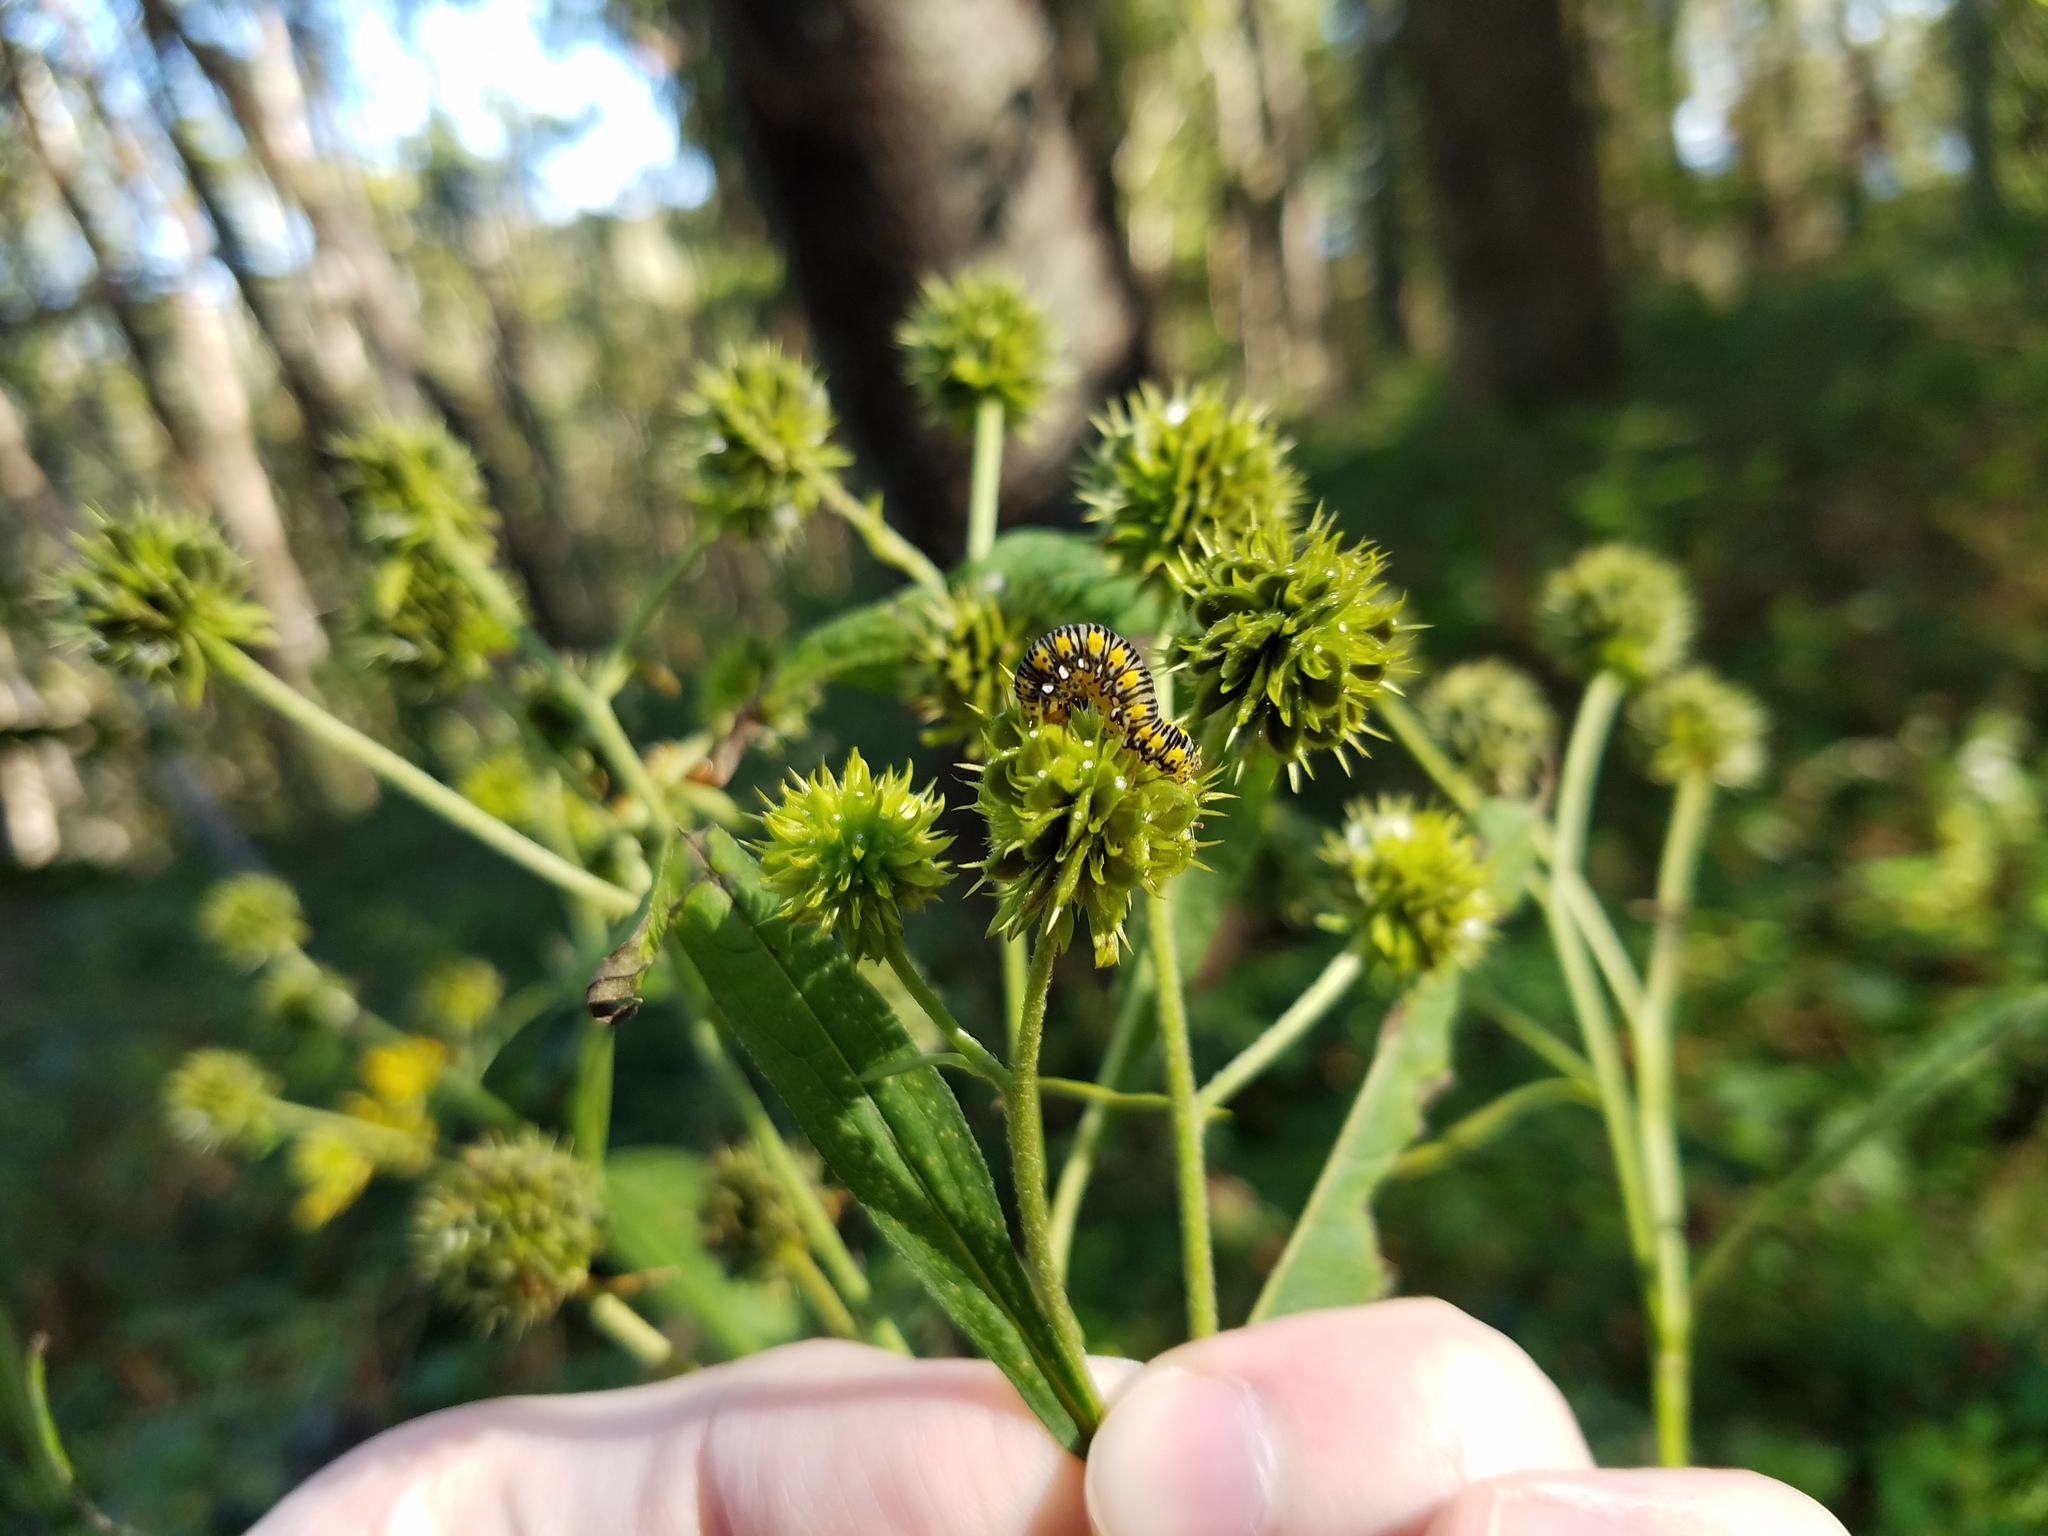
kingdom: Animalia
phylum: Arthropoda
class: Insecta
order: Lepidoptera
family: Noctuidae
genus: Basilodes
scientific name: Basilodes pepita
